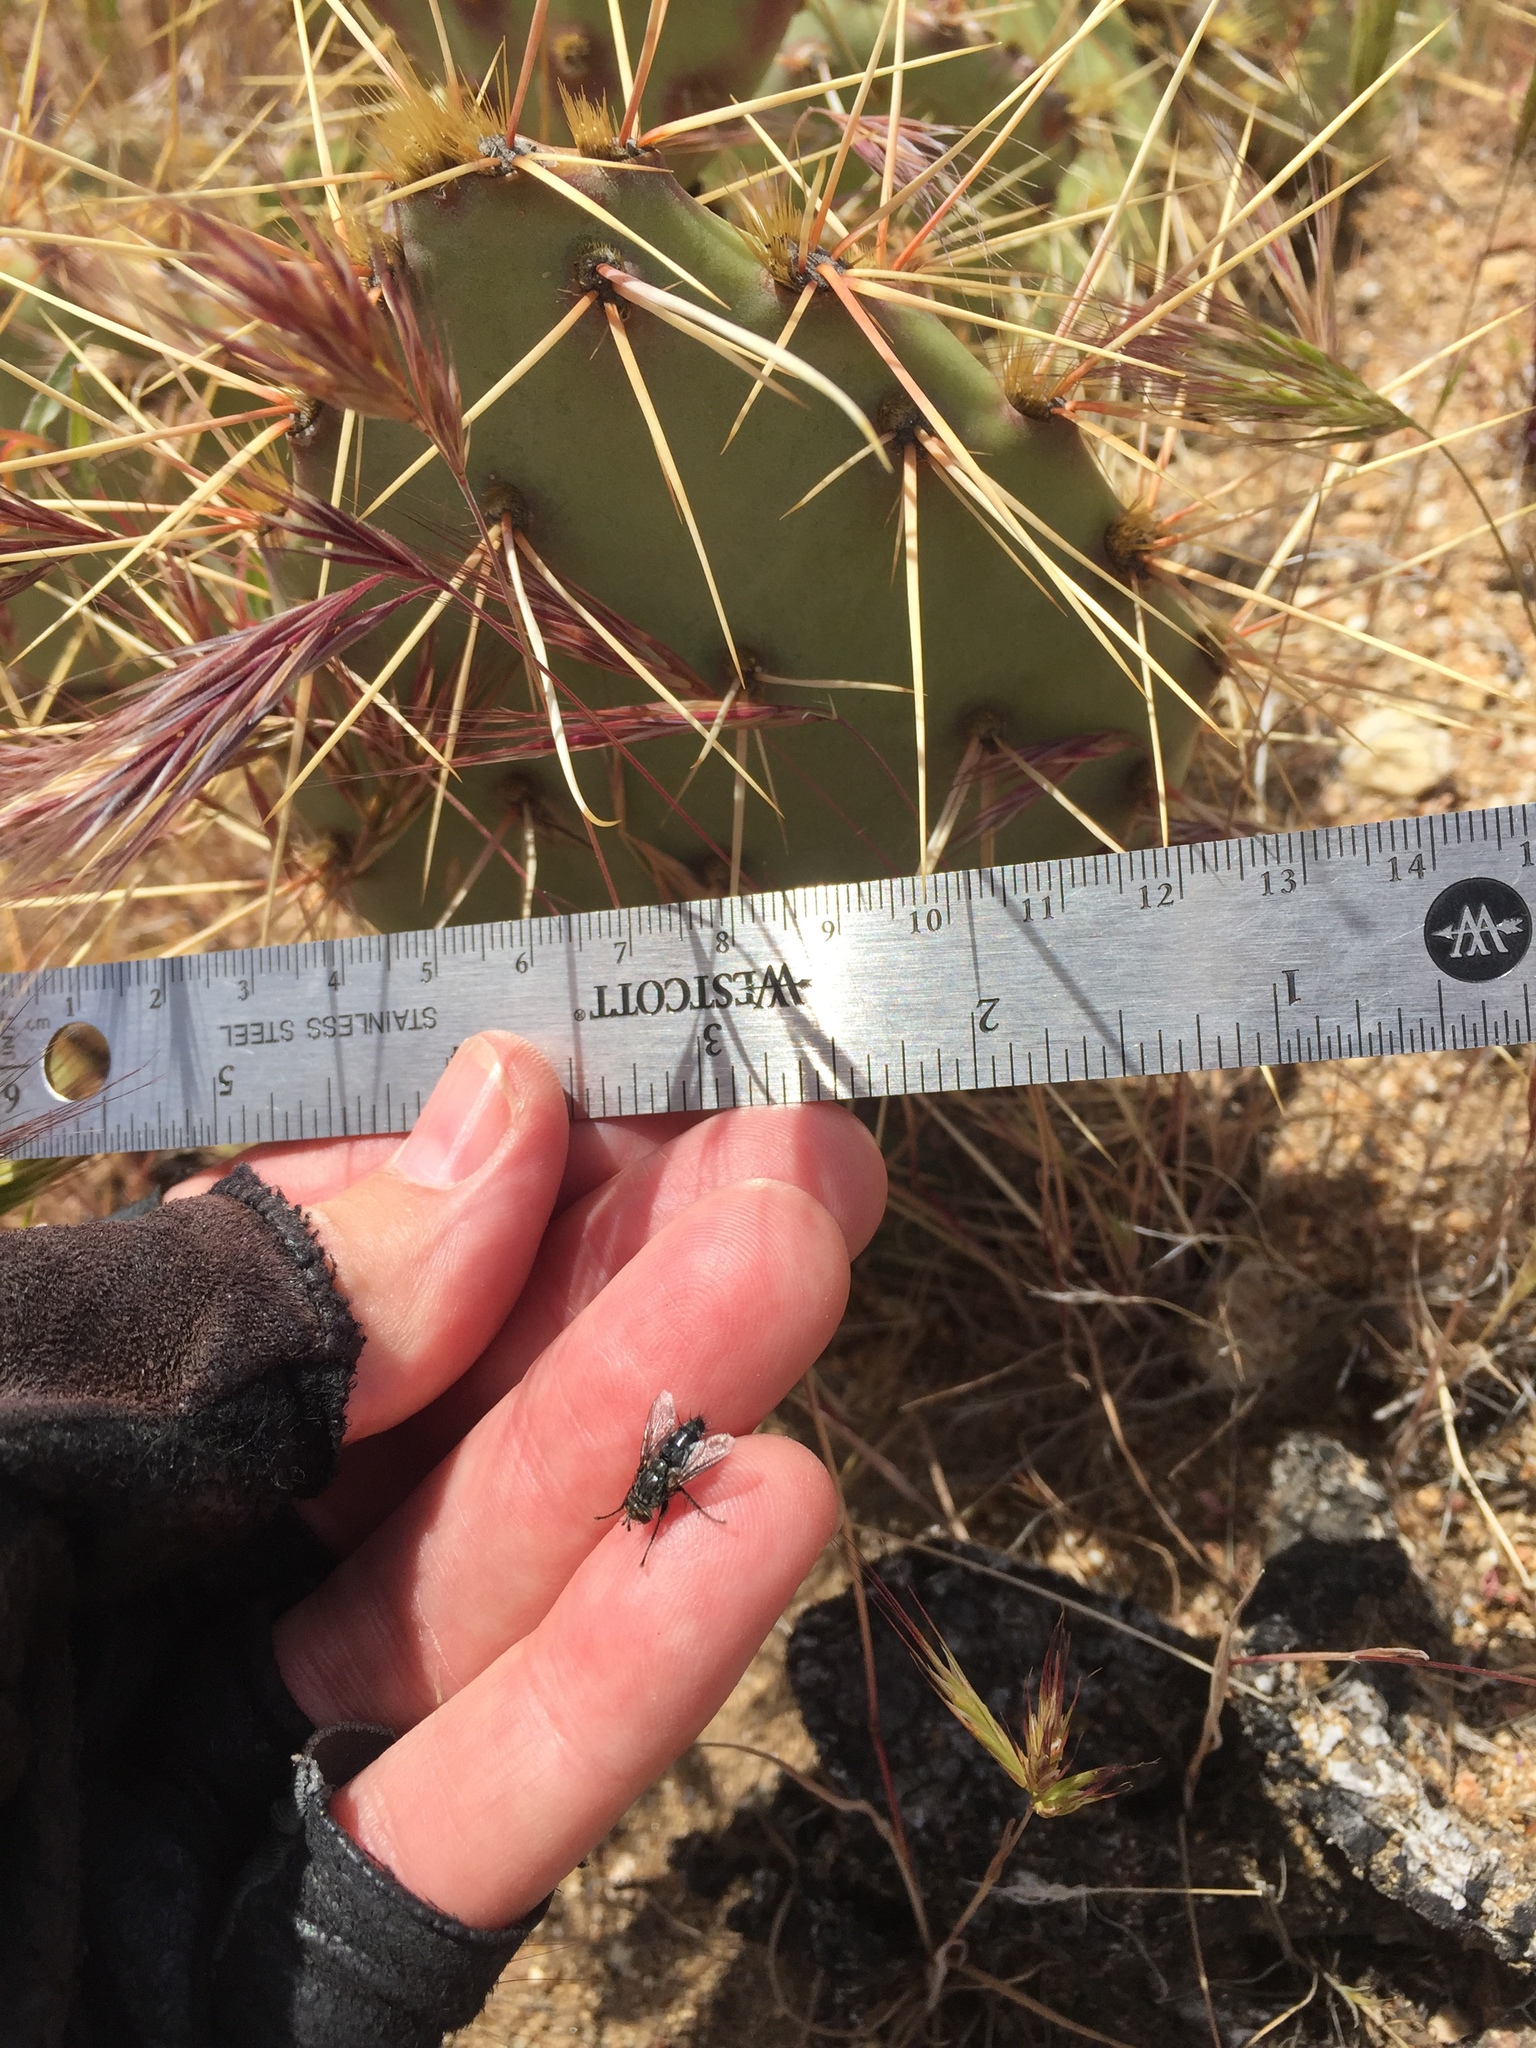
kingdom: Plantae
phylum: Tracheophyta
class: Magnoliopsida
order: Caryophyllales
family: Cactaceae
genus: Opuntia
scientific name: Opuntia phaeacantha
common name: New mexico prickly-pear
